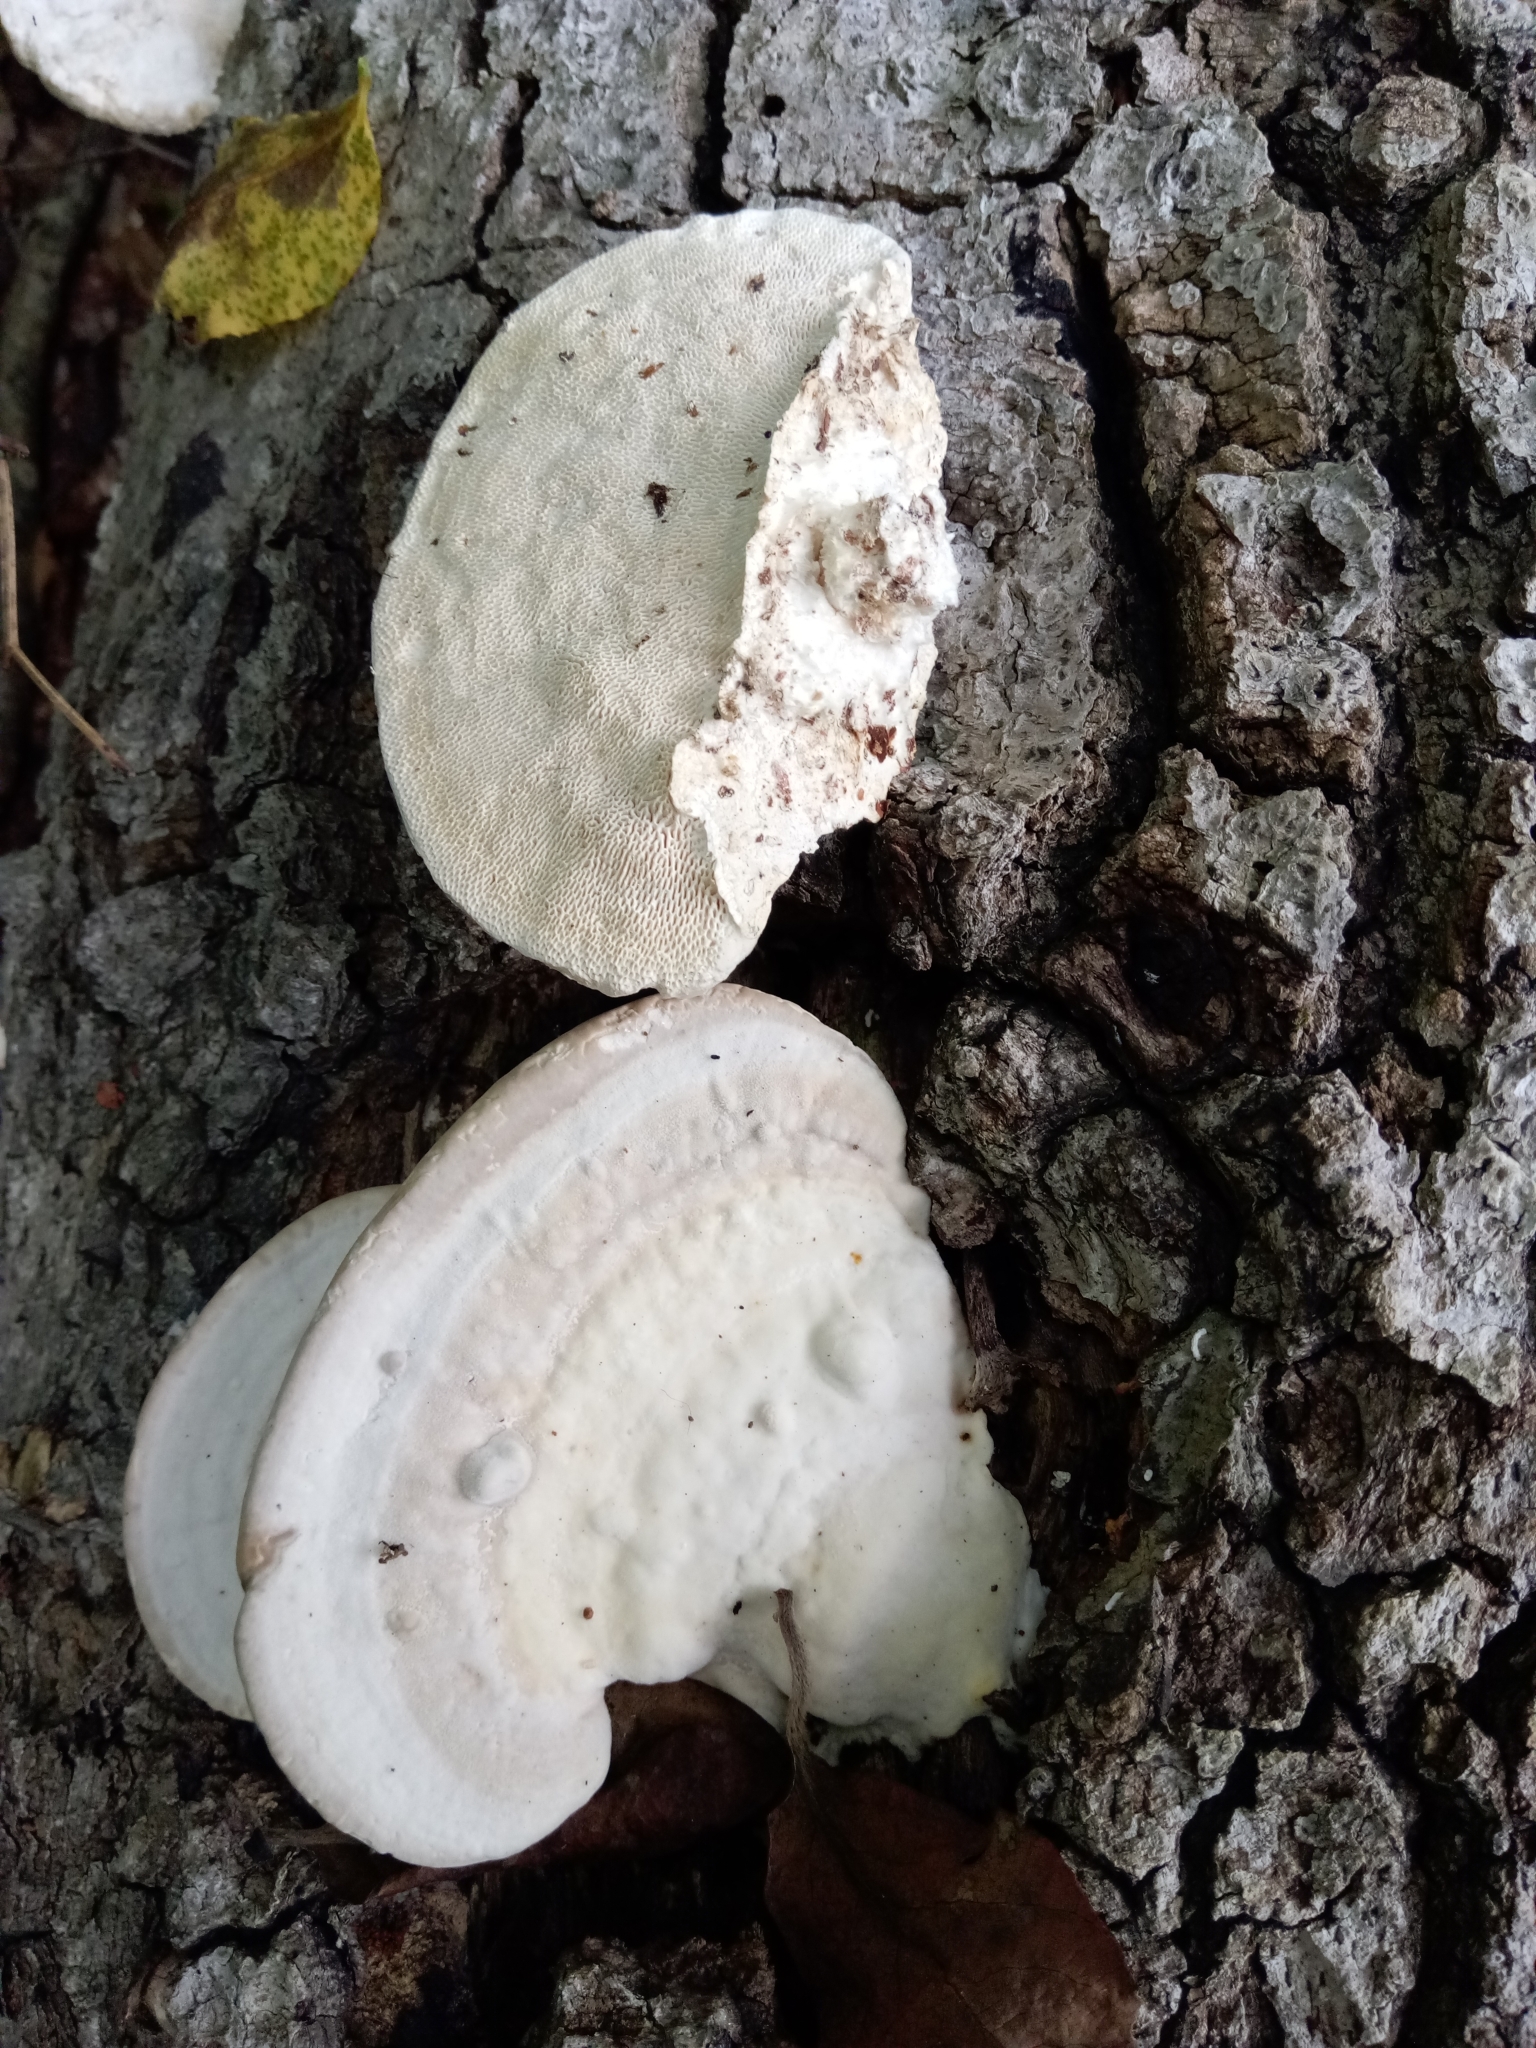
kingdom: Fungi
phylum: Basidiomycota
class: Agaricomycetes
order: Polyporales
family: Polyporaceae
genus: Trametes
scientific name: Trametes
